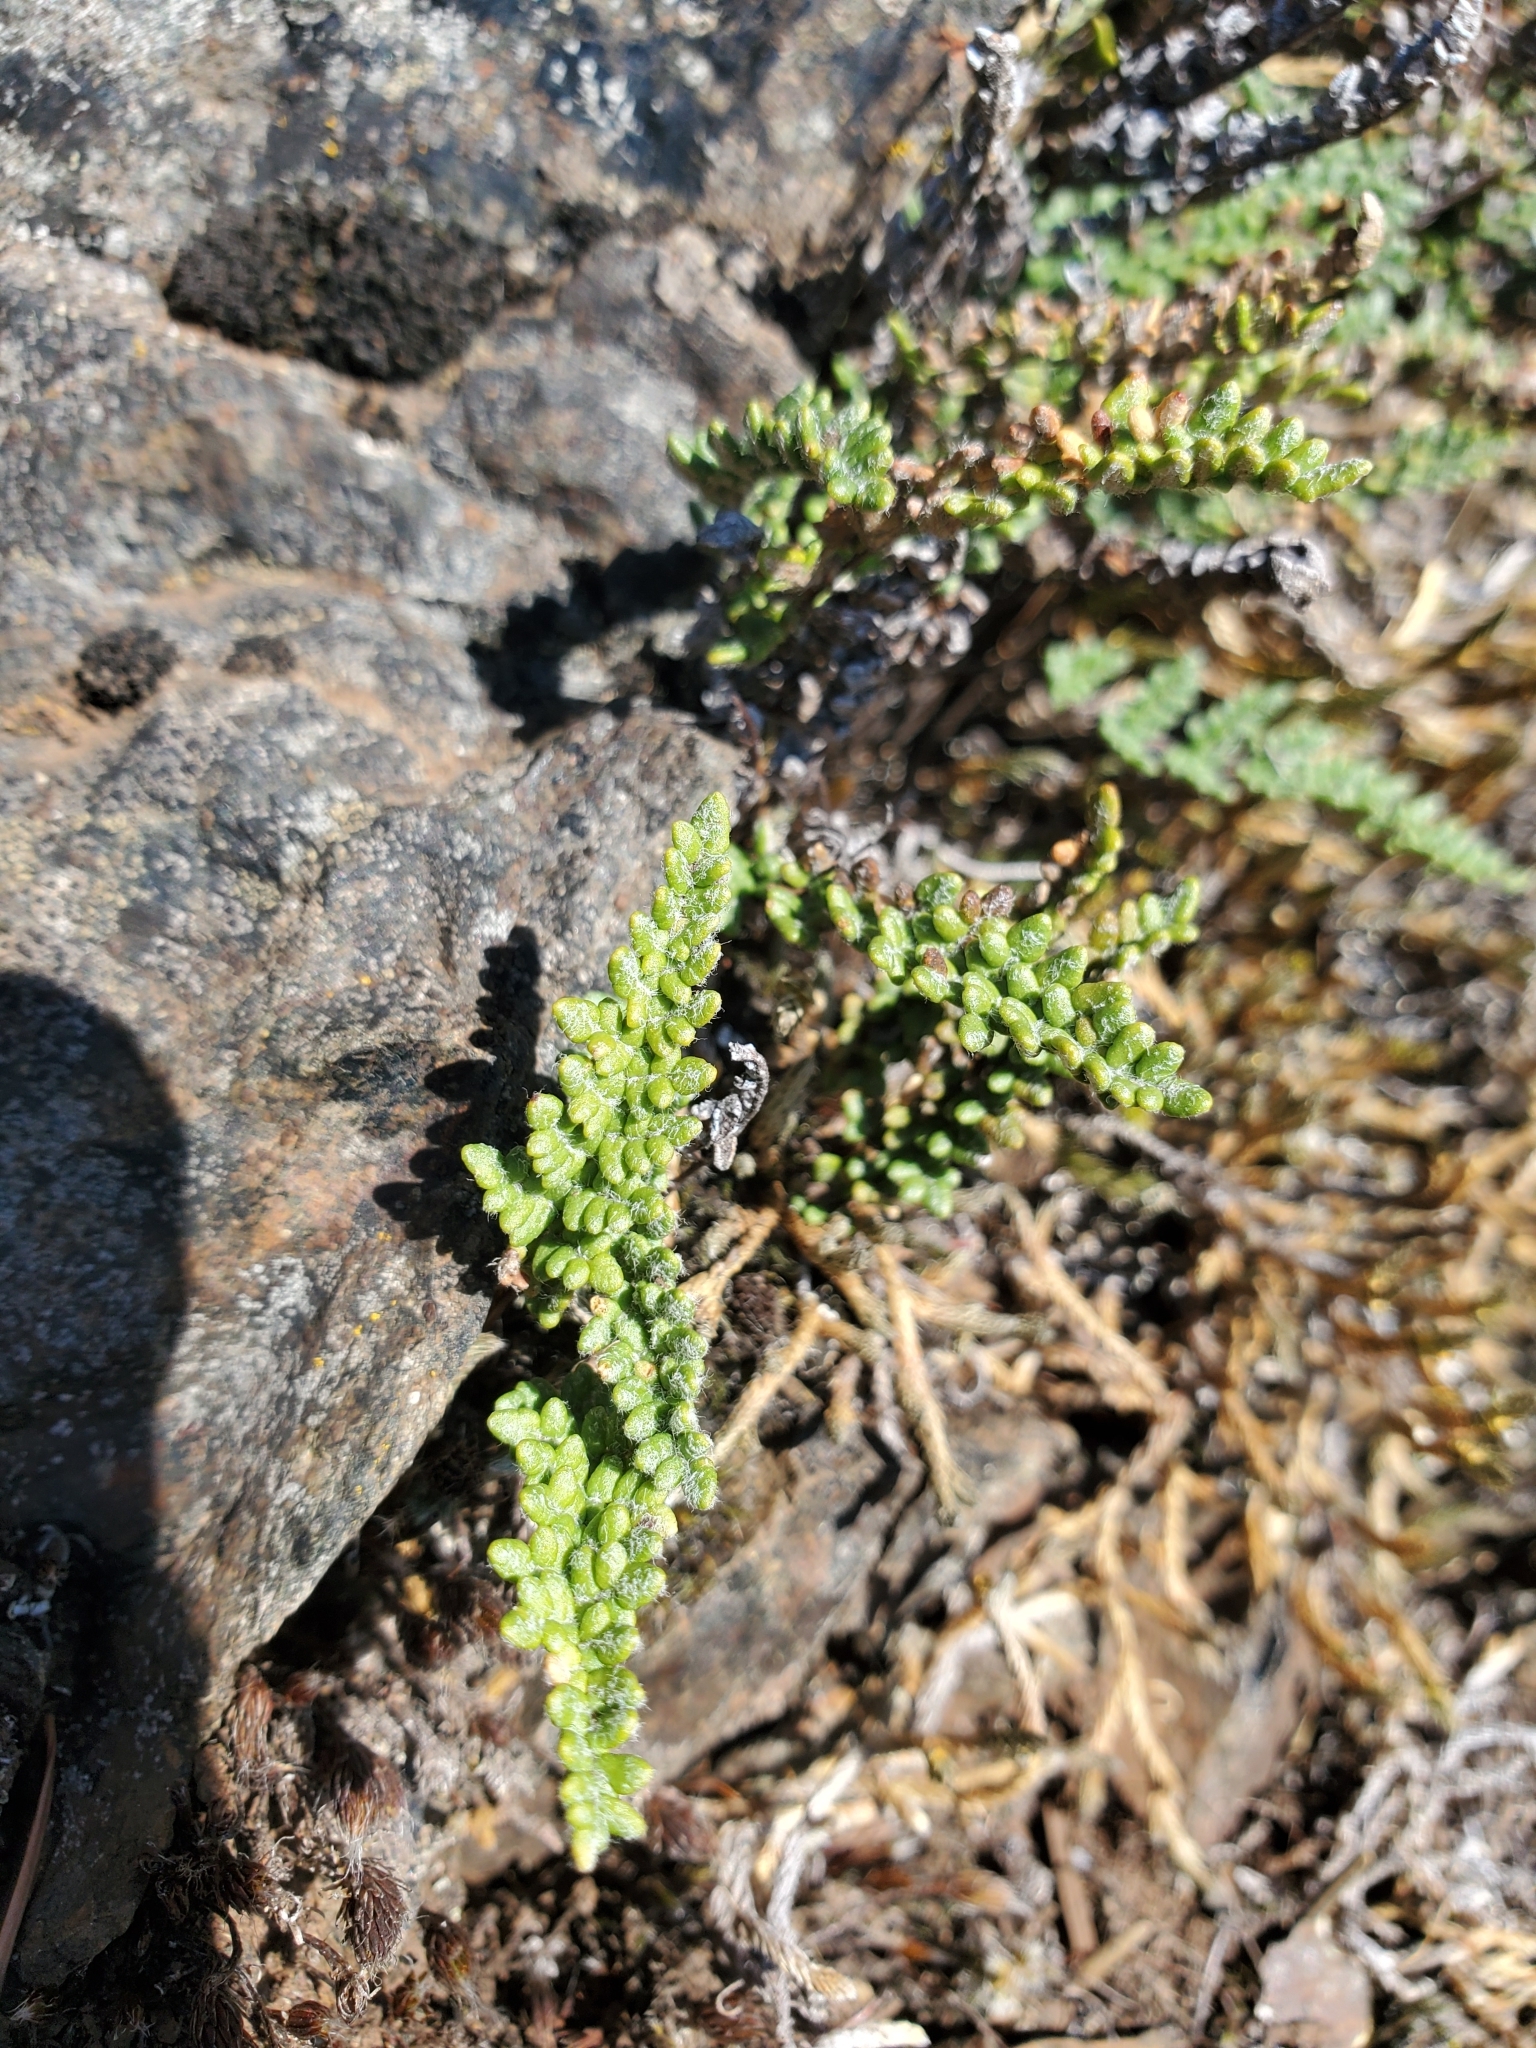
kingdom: Plantae
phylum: Tracheophyta
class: Polypodiopsida
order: Polypodiales
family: Pteridaceae
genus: Myriopteris
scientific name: Myriopteris gracillima
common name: Lace fern
